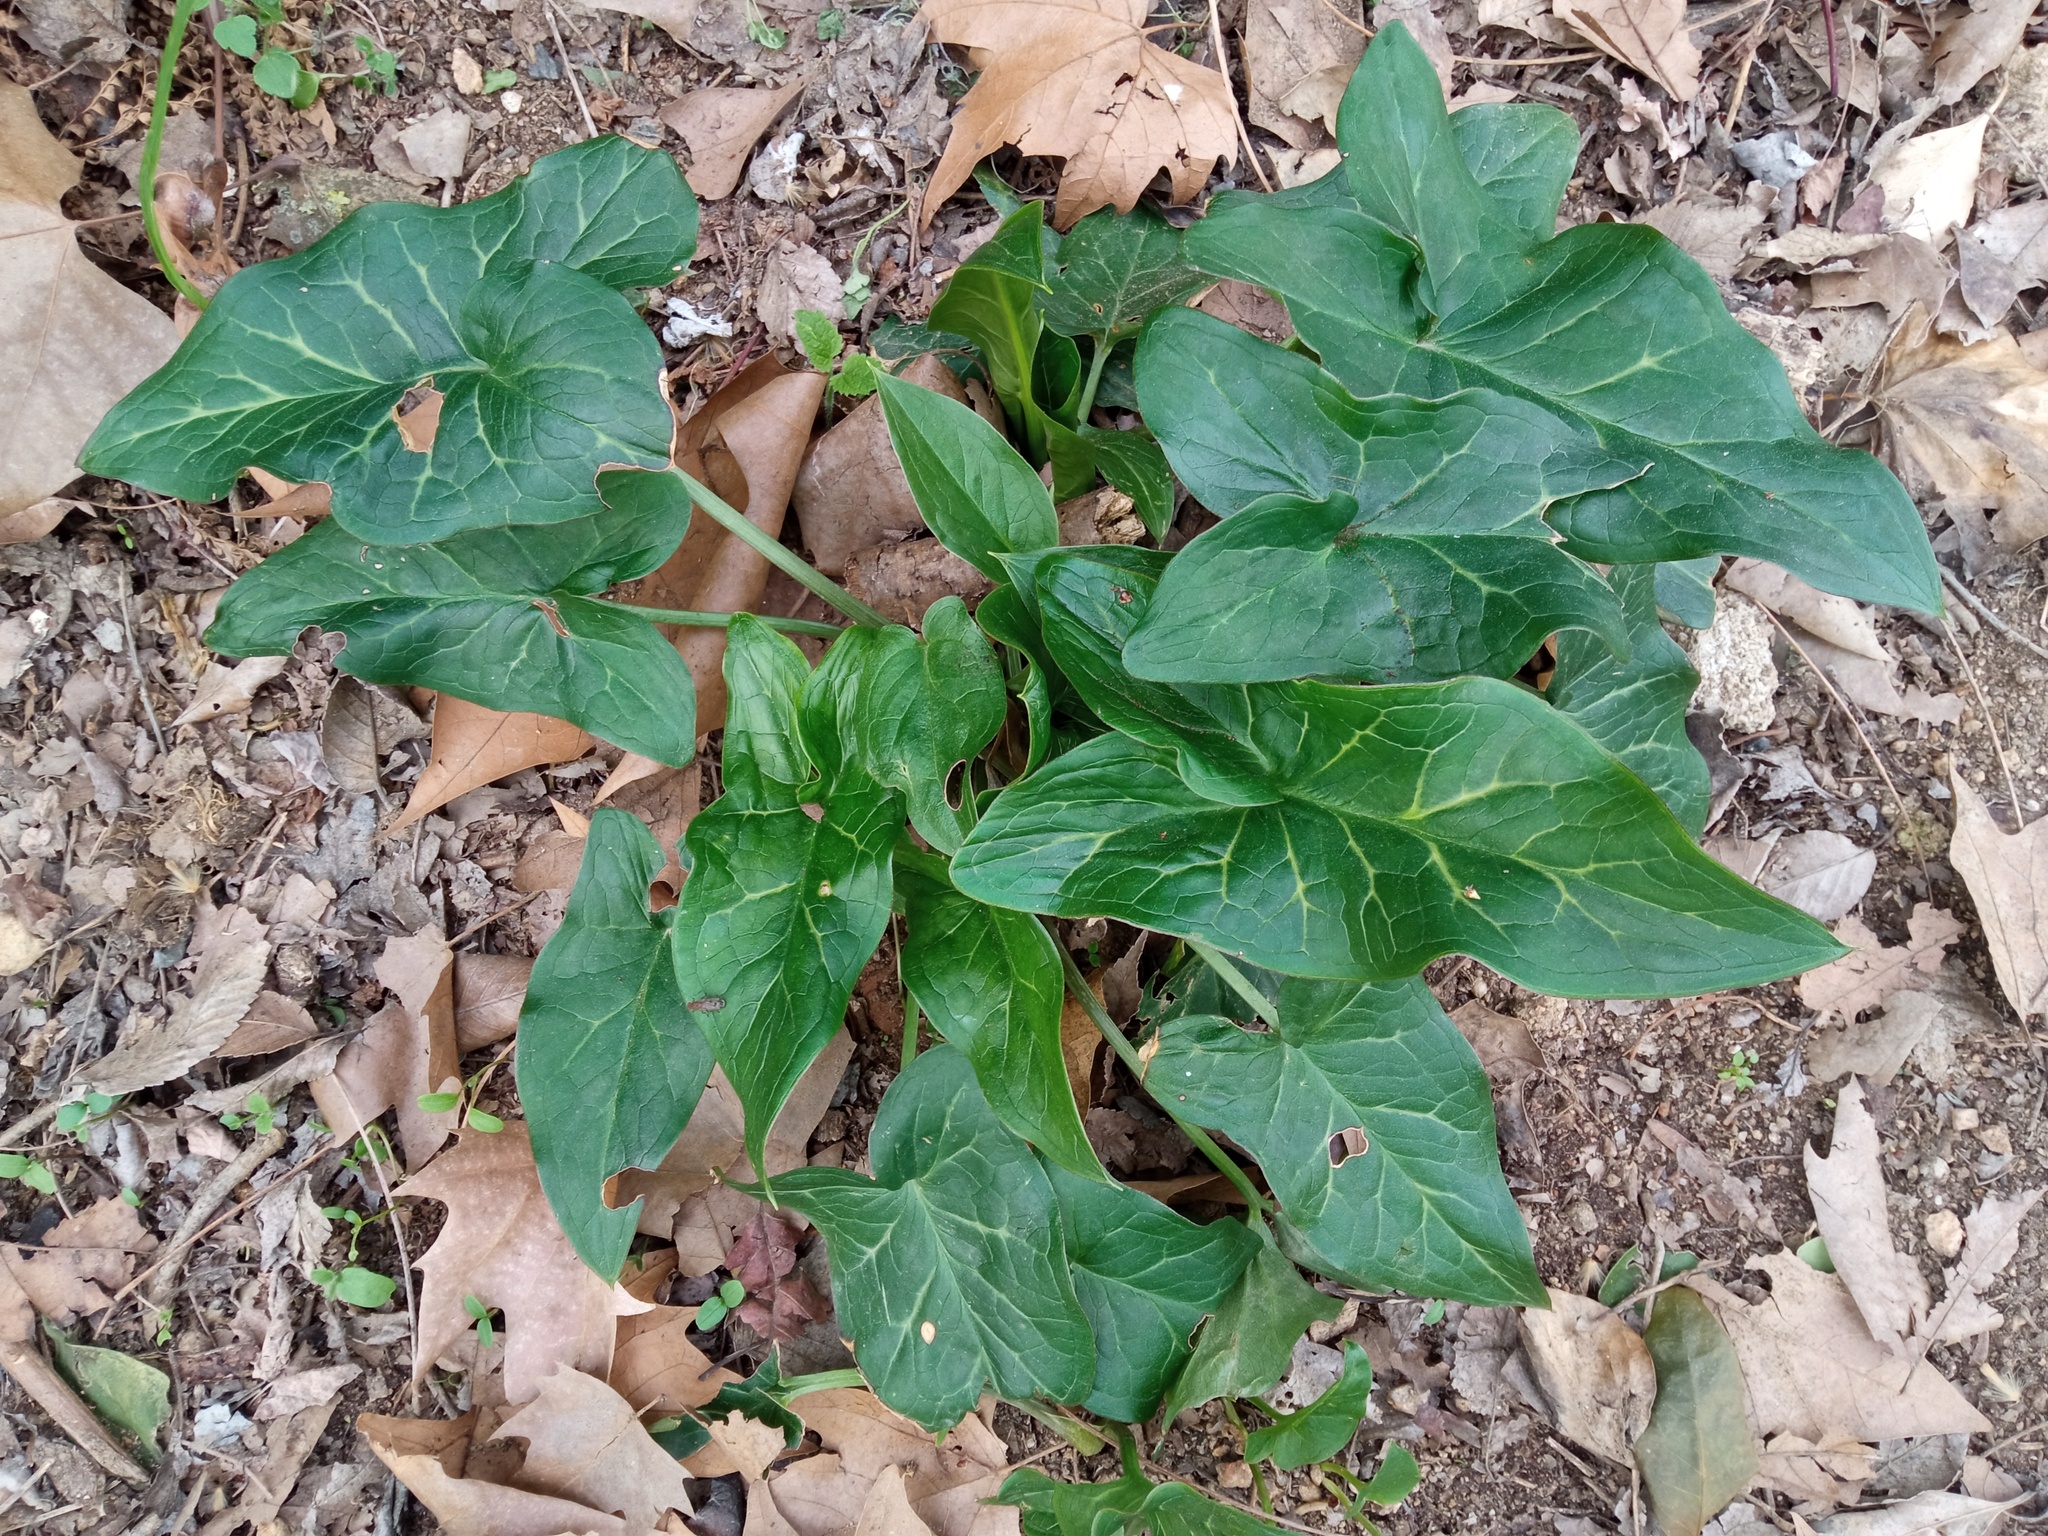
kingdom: Plantae
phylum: Tracheophyta
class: Liliopsida
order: Alismatales
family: Araceae
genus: Arum
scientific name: Arum italicum
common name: Italian lords-and-ladies
